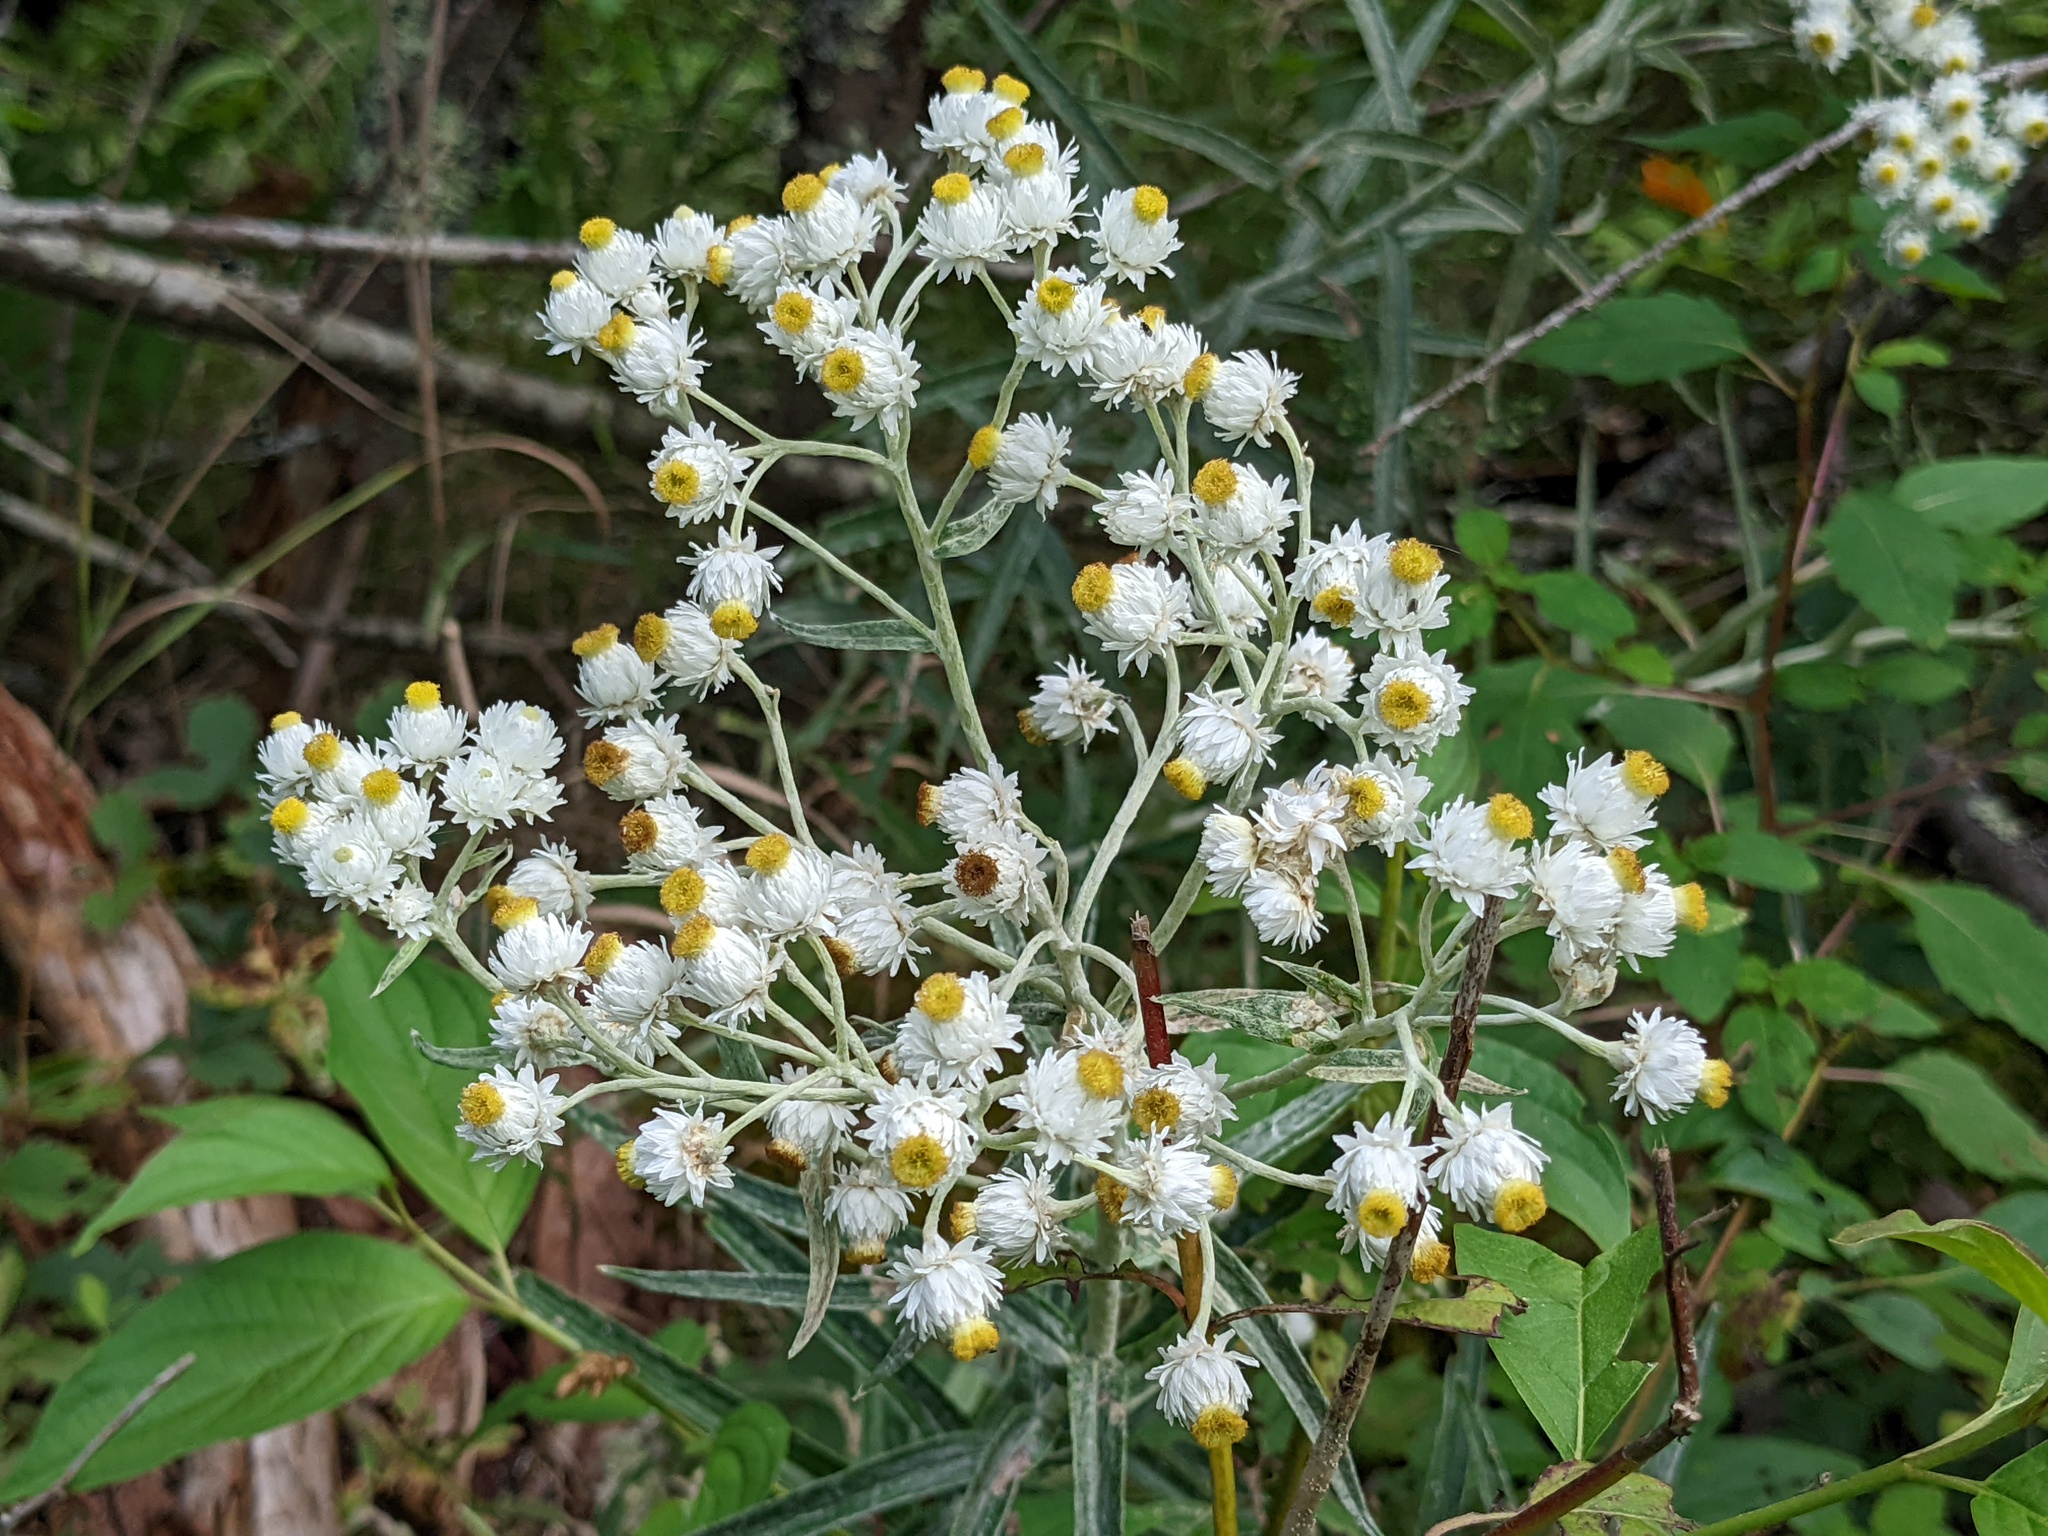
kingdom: Plantae
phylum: Tracheophyta
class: Magnoliopsida
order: Asterales
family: Asteraceae
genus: Anaphalis
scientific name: Anaphalis margaritacea
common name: Pearly everlasting
